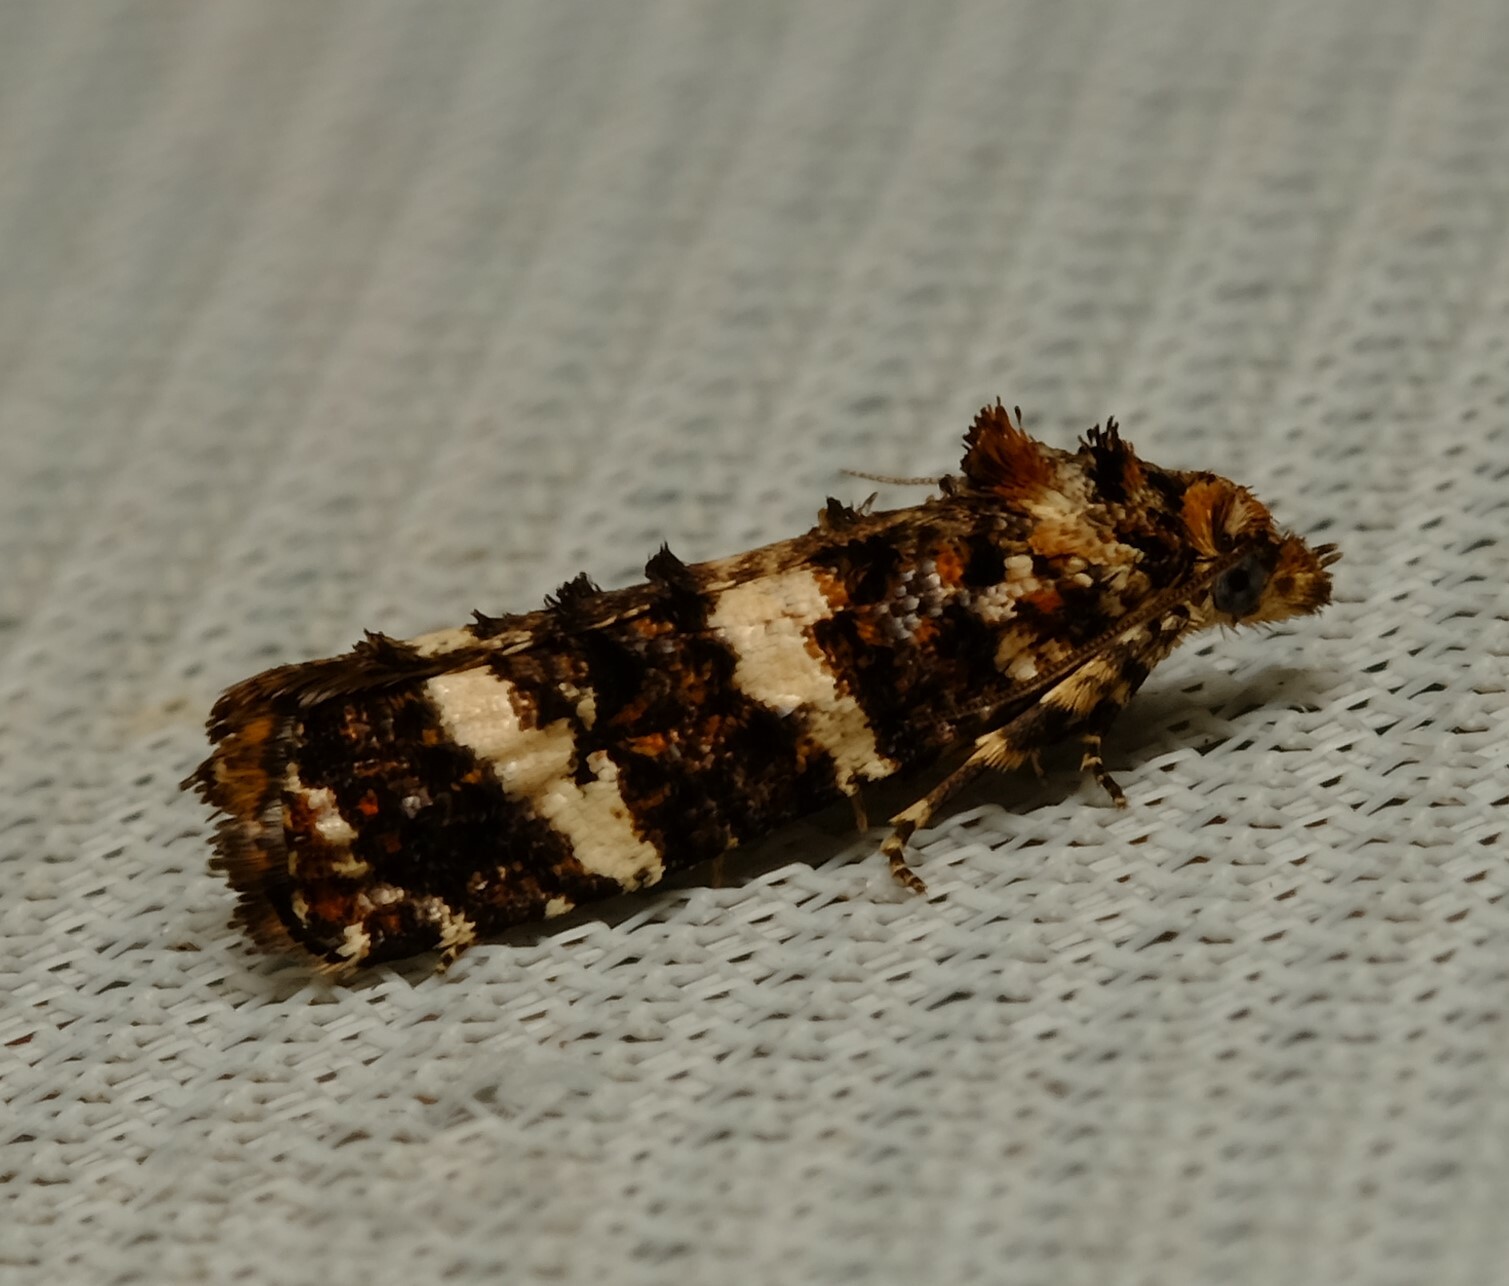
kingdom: Animalia
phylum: Arthropoda
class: Insecta
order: Lepidoptera
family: Tortricidae
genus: Scolioplecta
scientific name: Scolioplecta comptana
